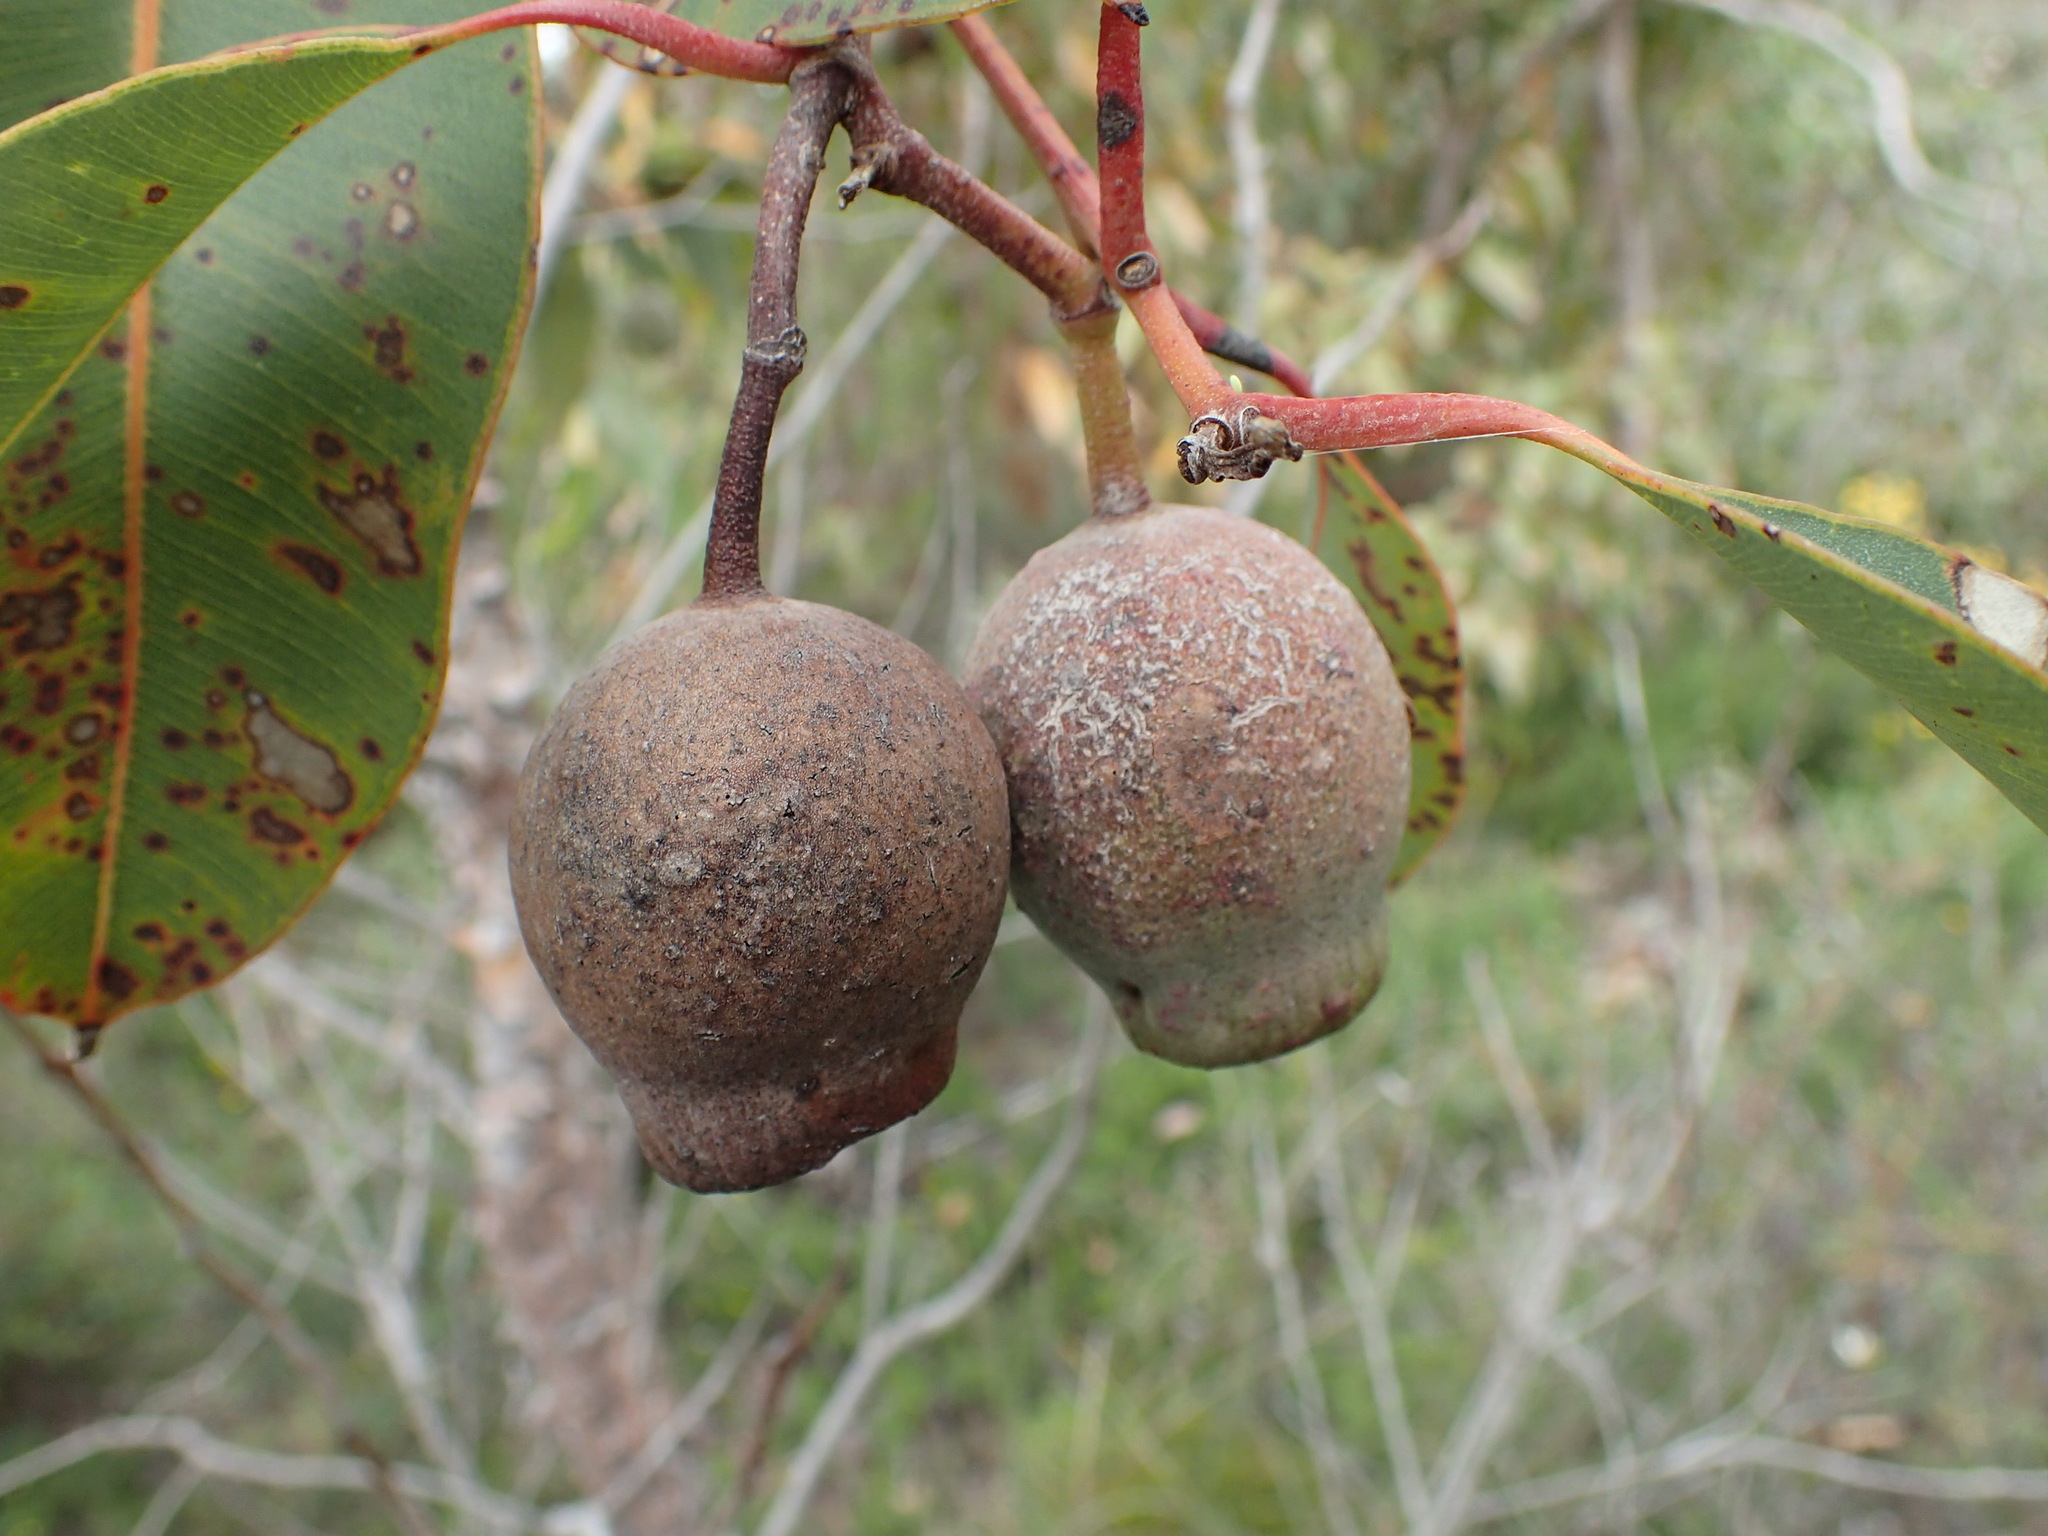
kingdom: Plantae
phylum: Tracheophyta
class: Magnoliopsida
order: Myrtales
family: Myrtaceae
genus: Corymbia
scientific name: Corymbia calophylla
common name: Marri
